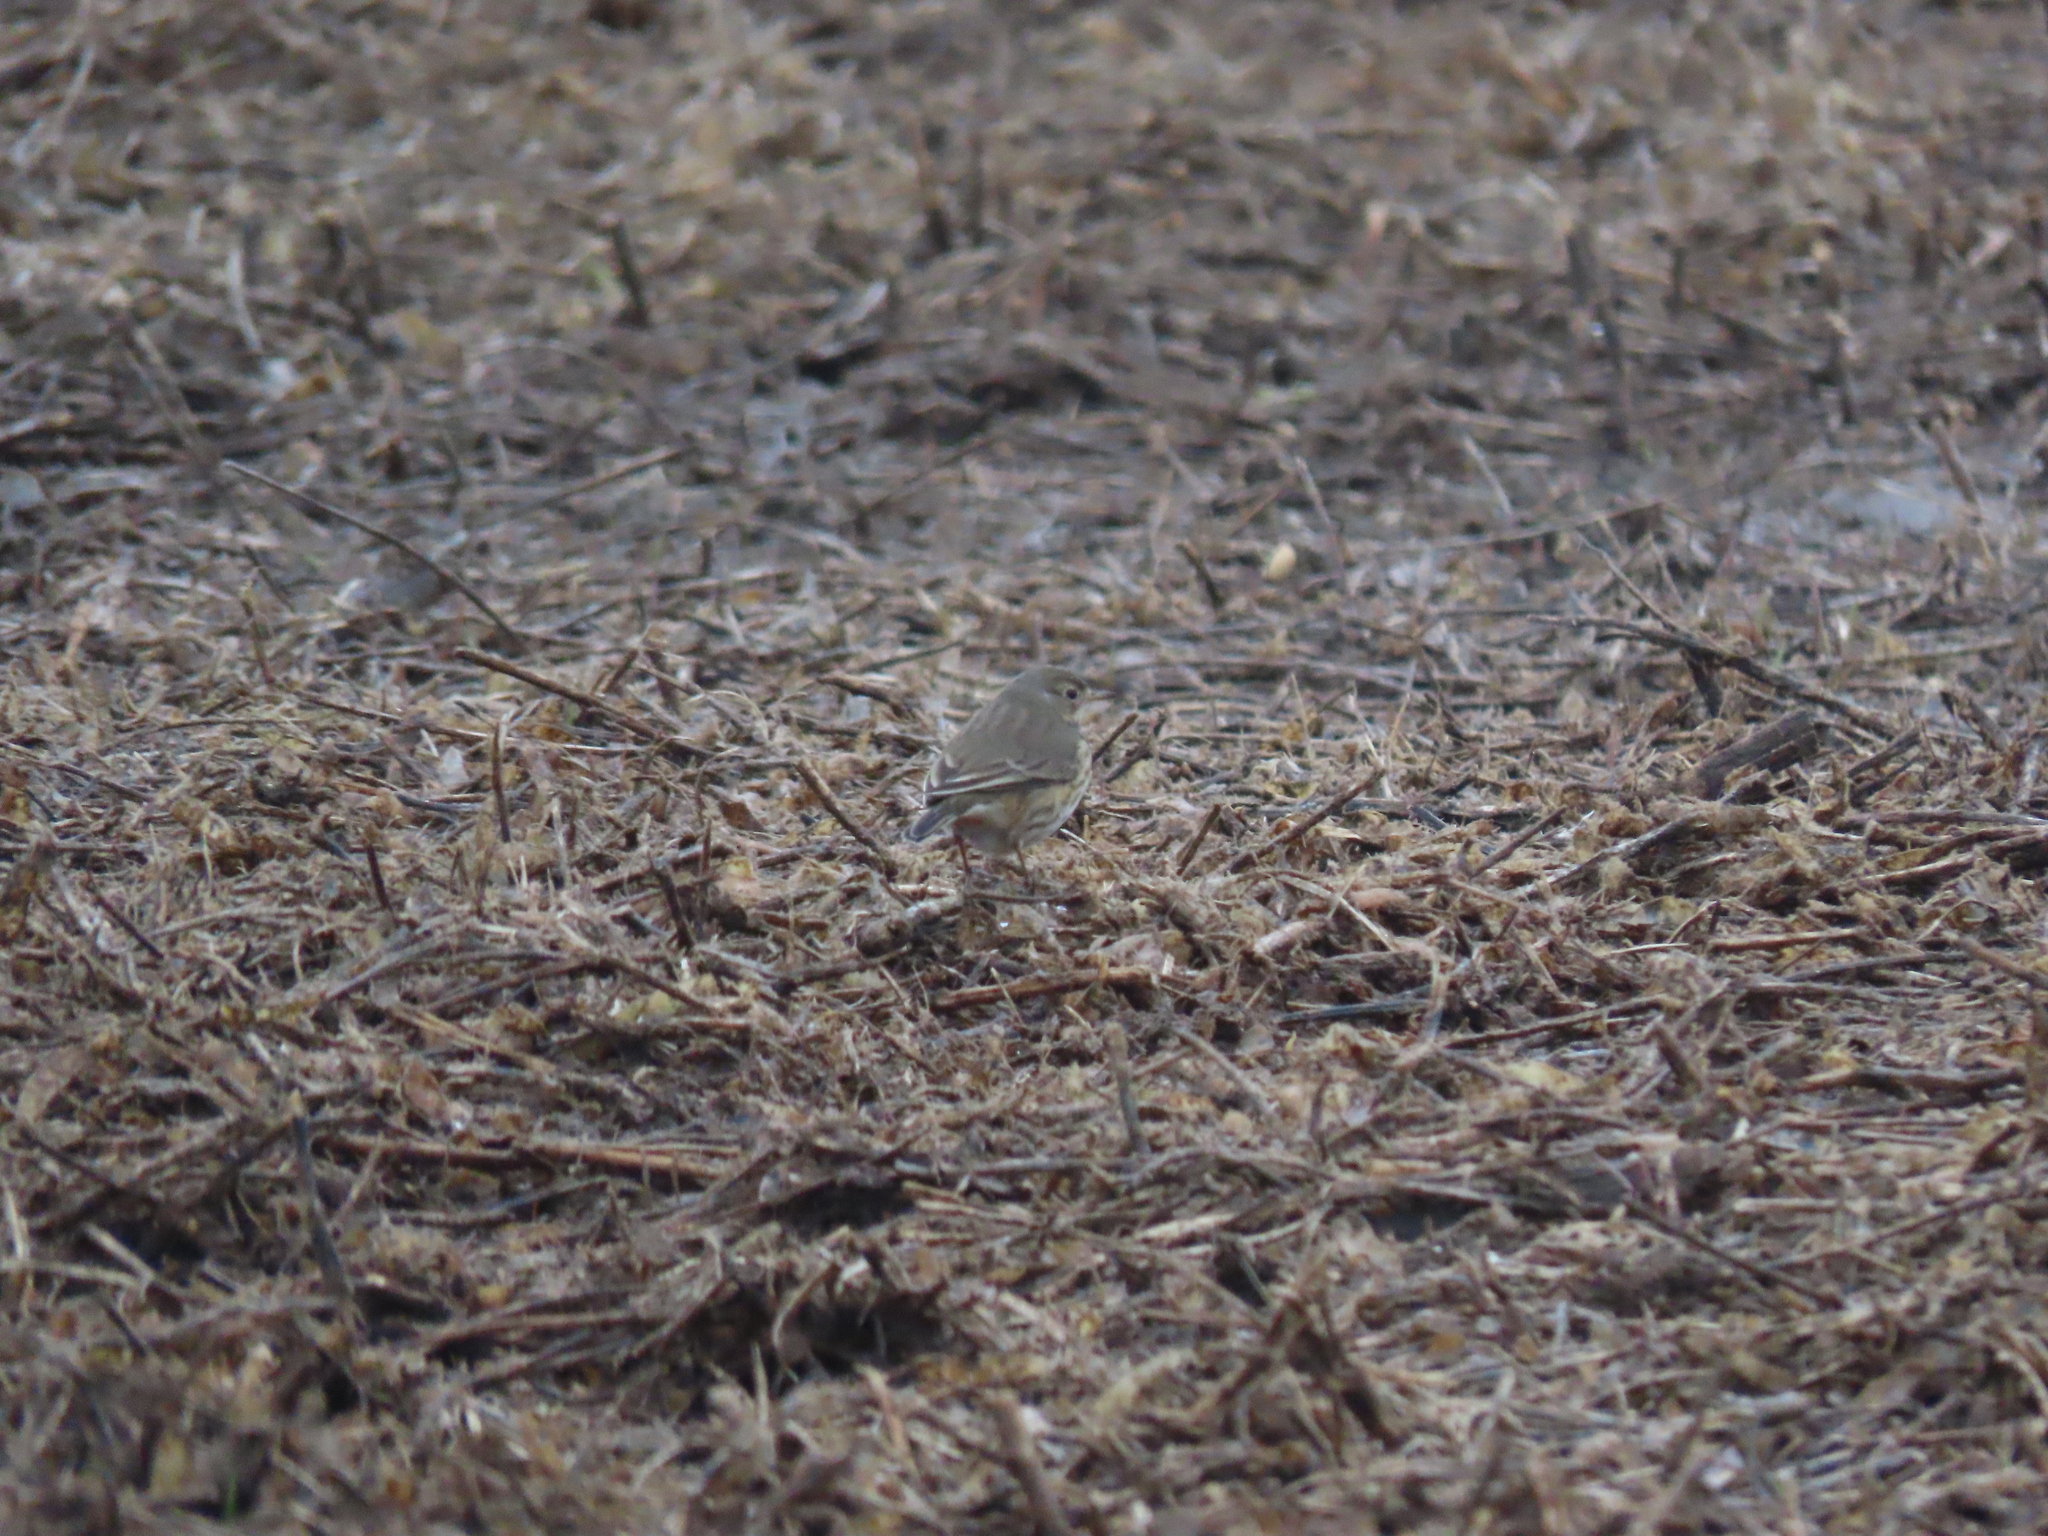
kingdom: Animalia
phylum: Chordata
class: Aves
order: Passeriformes
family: Motacillidae
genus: Anthus
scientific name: Anthus rubescens
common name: Buff-bellied pipit
